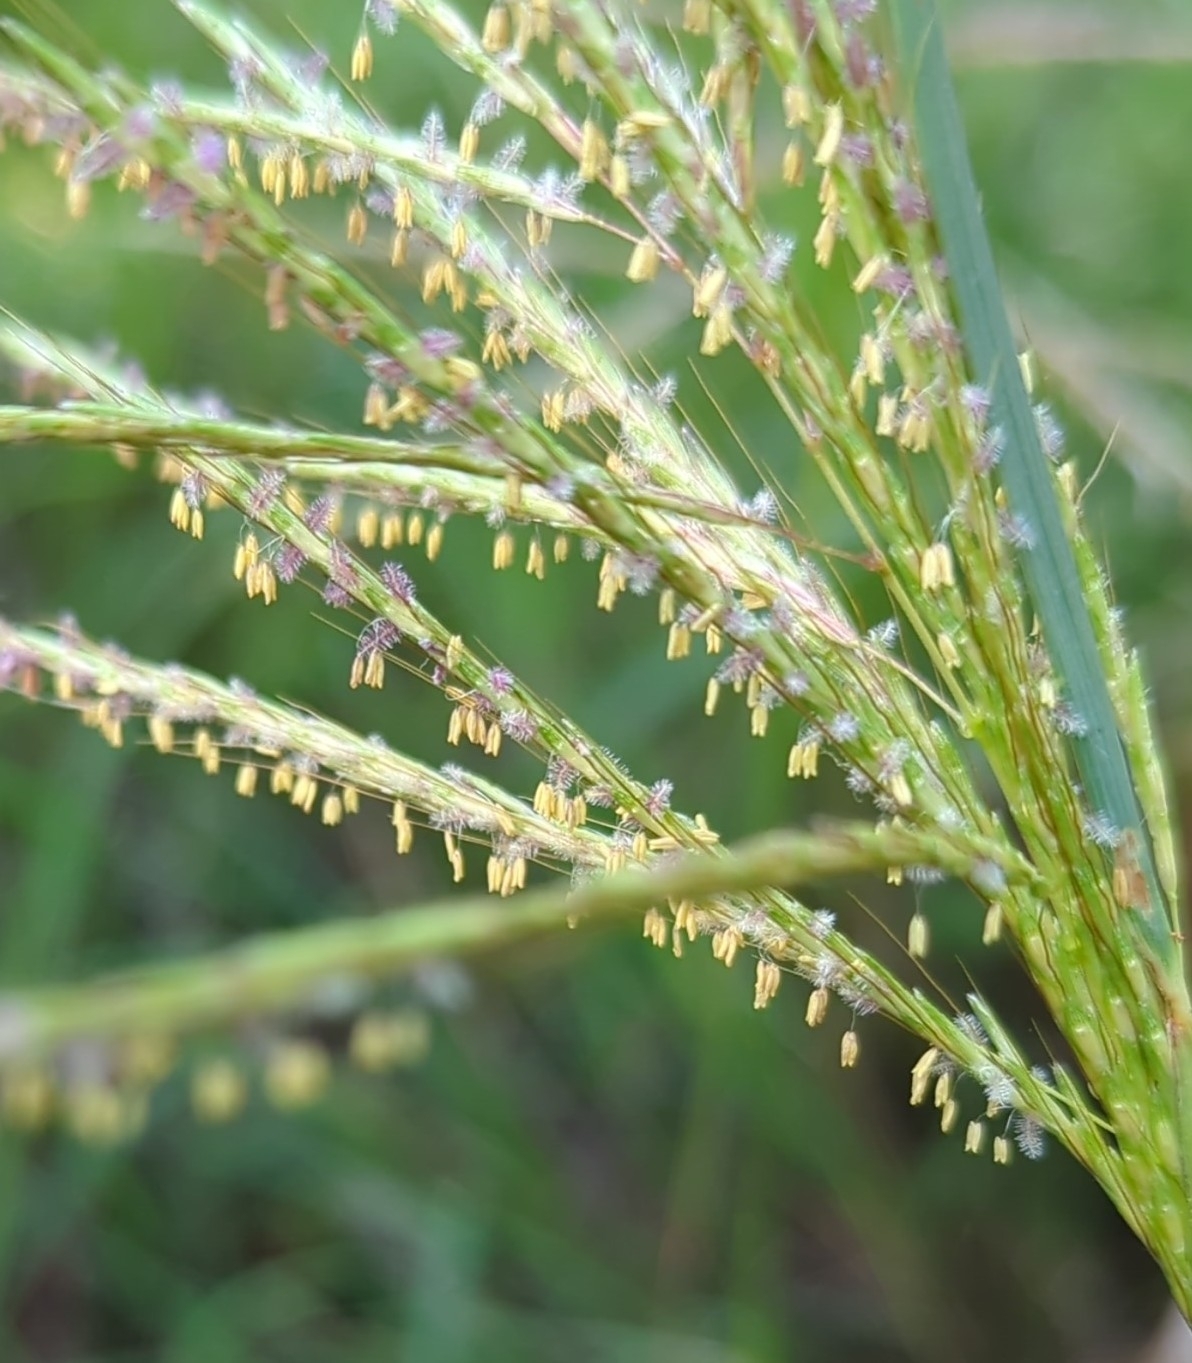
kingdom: Plantae
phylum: Tracheophyta
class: Liliopsida
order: Poales
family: Poaceae
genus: Bothriochloa
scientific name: Bothriochloa bladhii
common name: Caucasian bluestem
